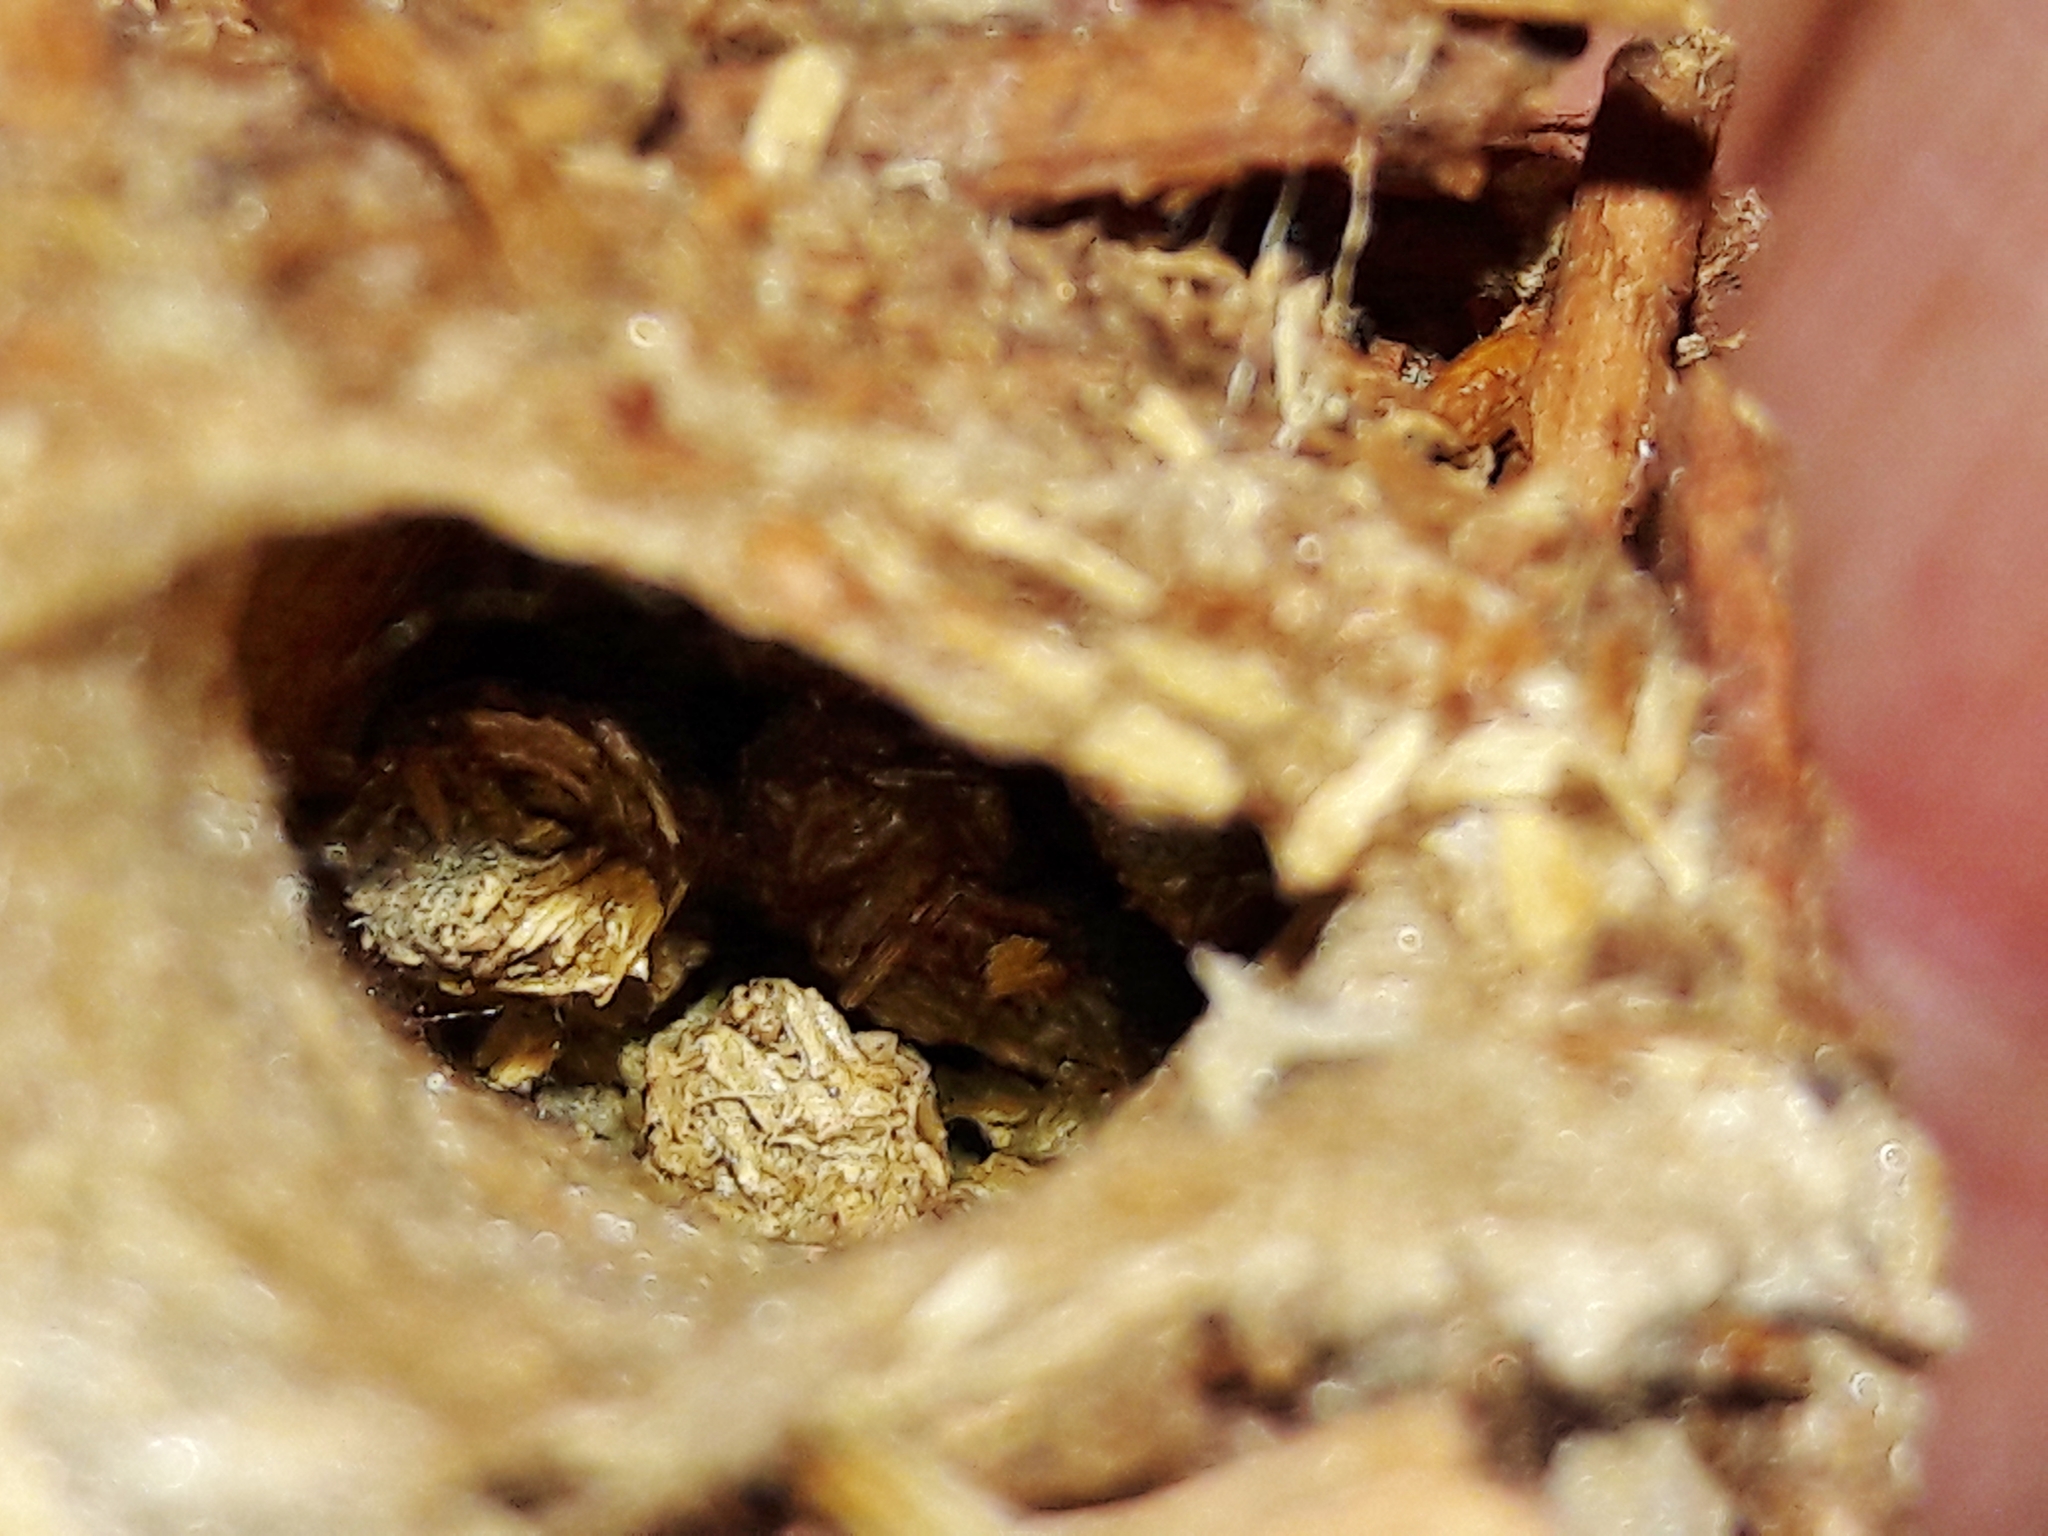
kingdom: Animalia
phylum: Arthropoda
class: Insecta
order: Lepidoptera
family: Psychidae
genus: Oiketicus
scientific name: Oiketicus kirbyi
